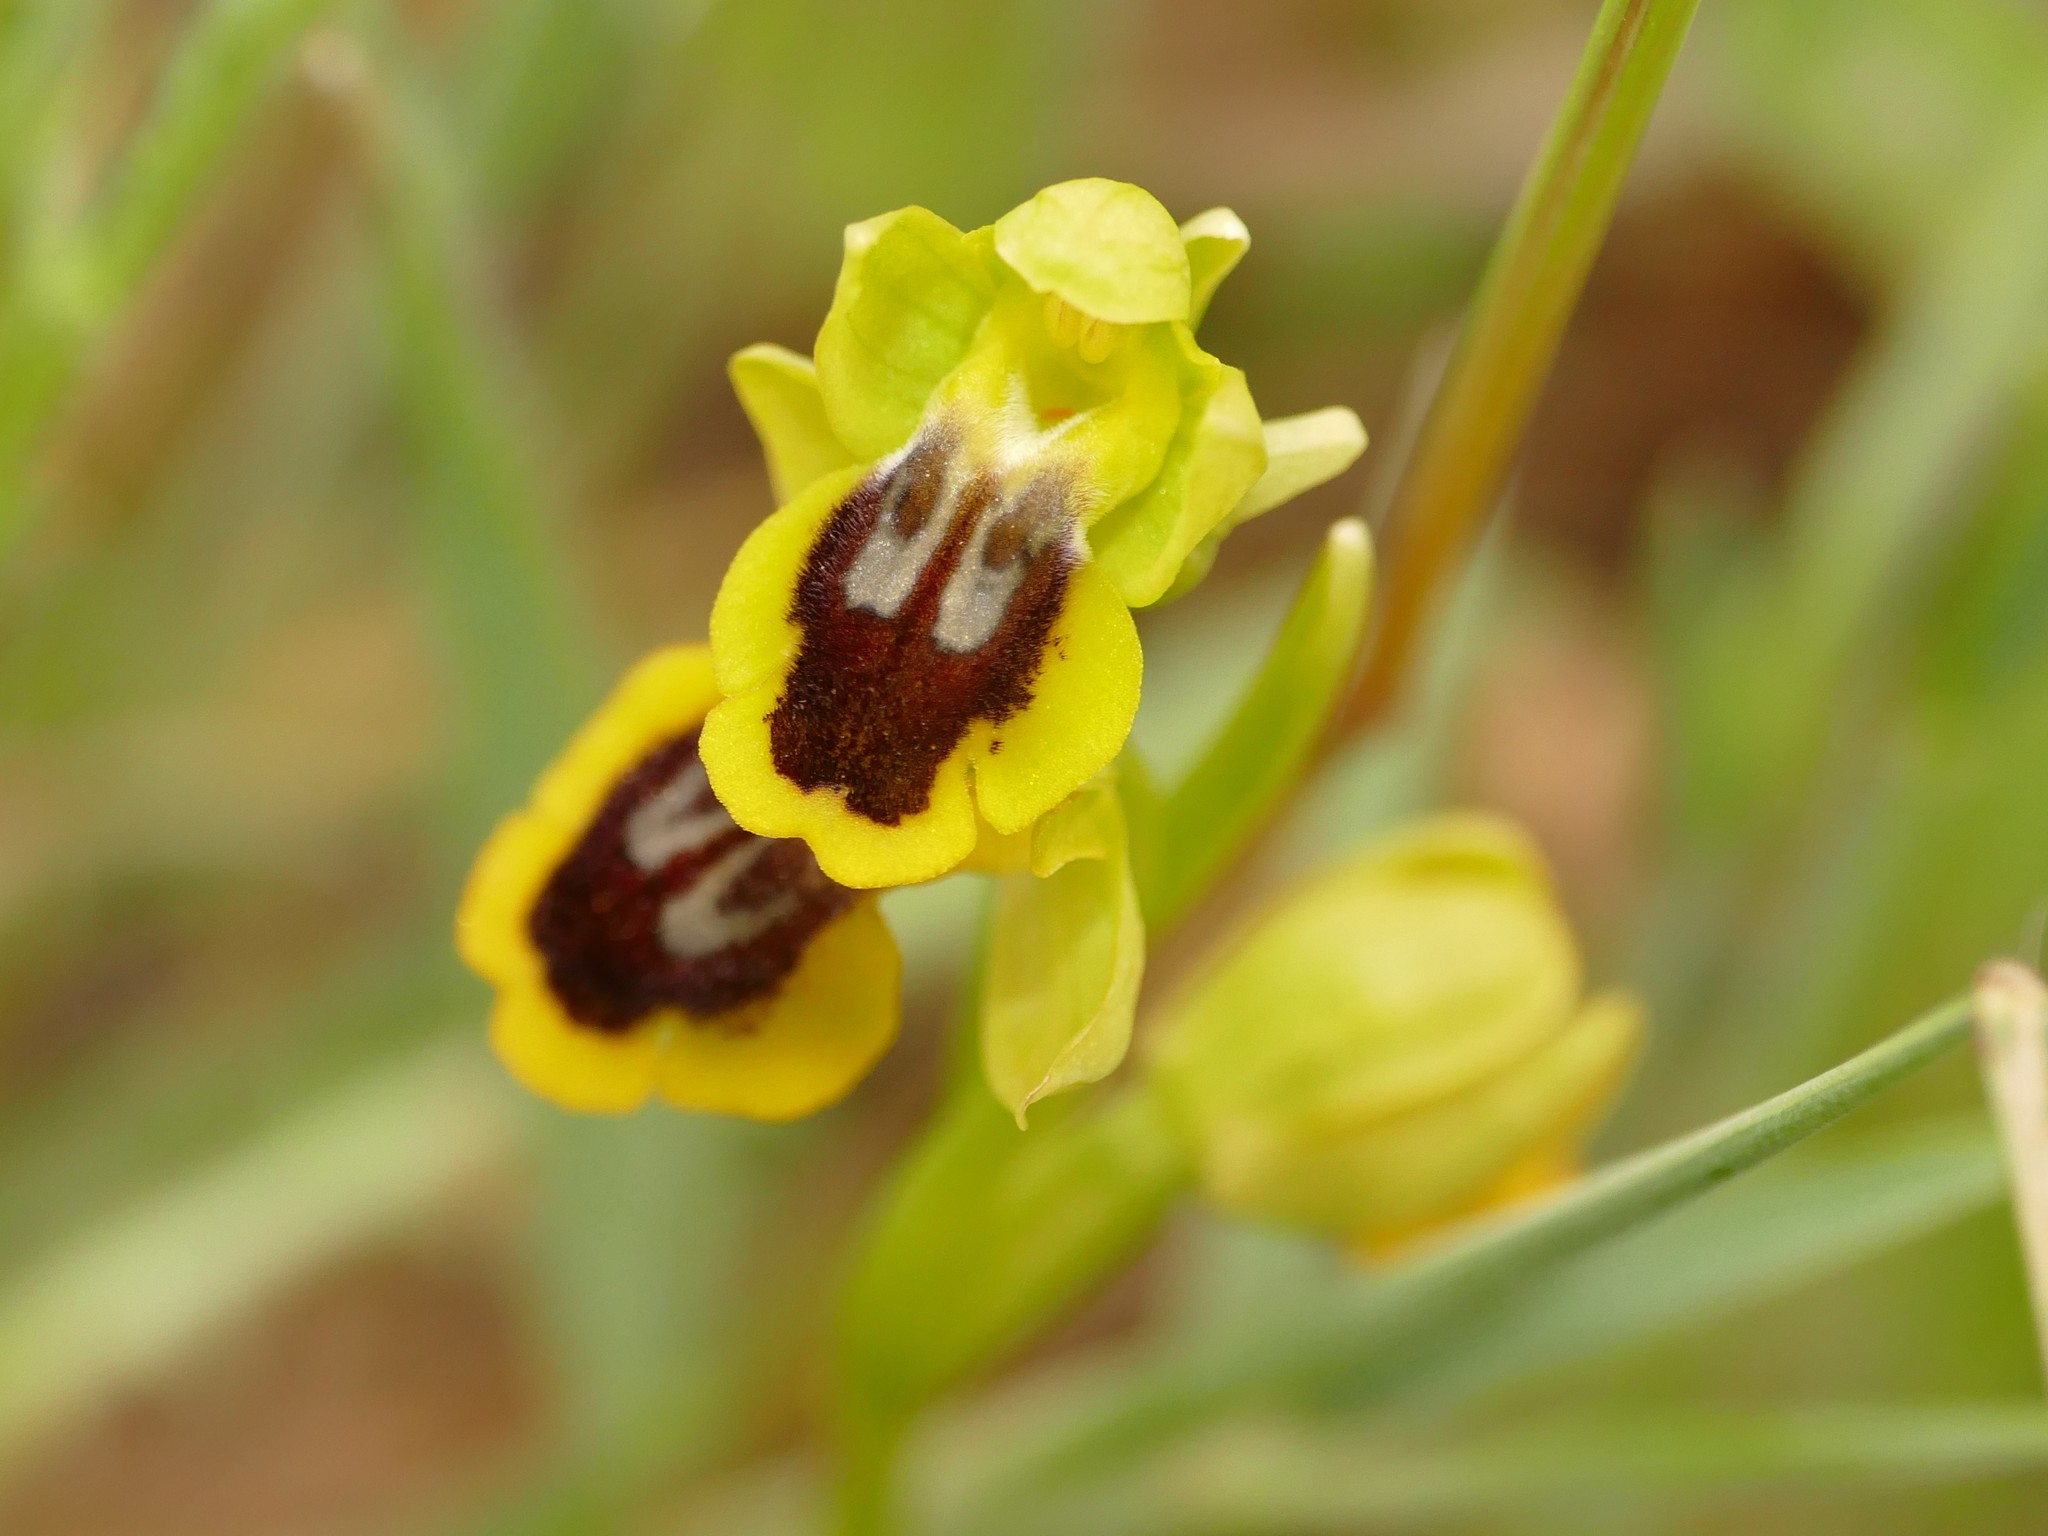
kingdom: Plantae
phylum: Tracheophyta
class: Liliopsida
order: Asparagales
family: Orchidaceae
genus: Ophrys
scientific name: Ophrys lutea
